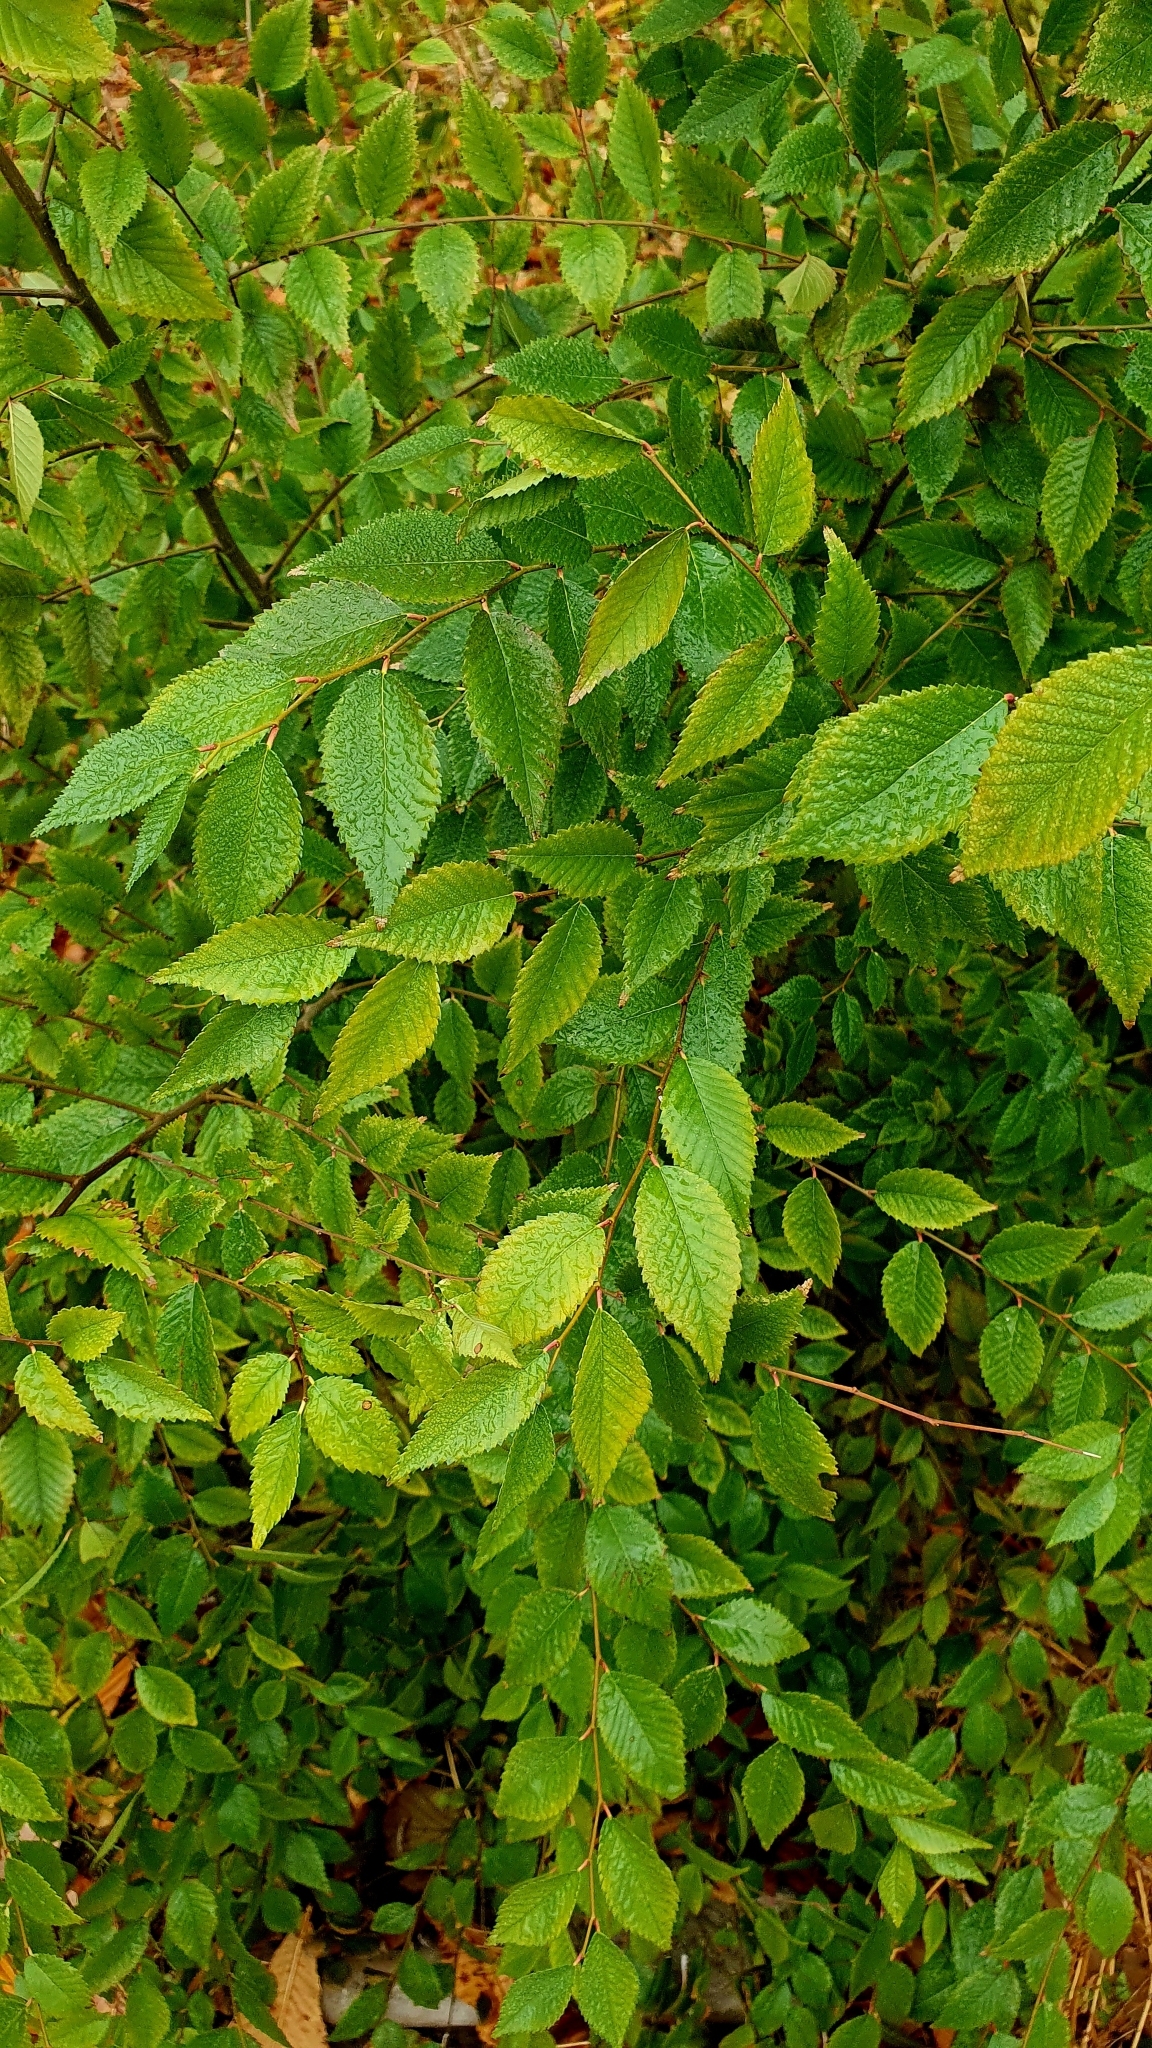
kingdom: Plantae
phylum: Tracheophyta
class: Magnoliopsida
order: Rosales
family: Ulmaceae
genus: Ulmus
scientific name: Ulmus pumila
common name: Siberian elm
